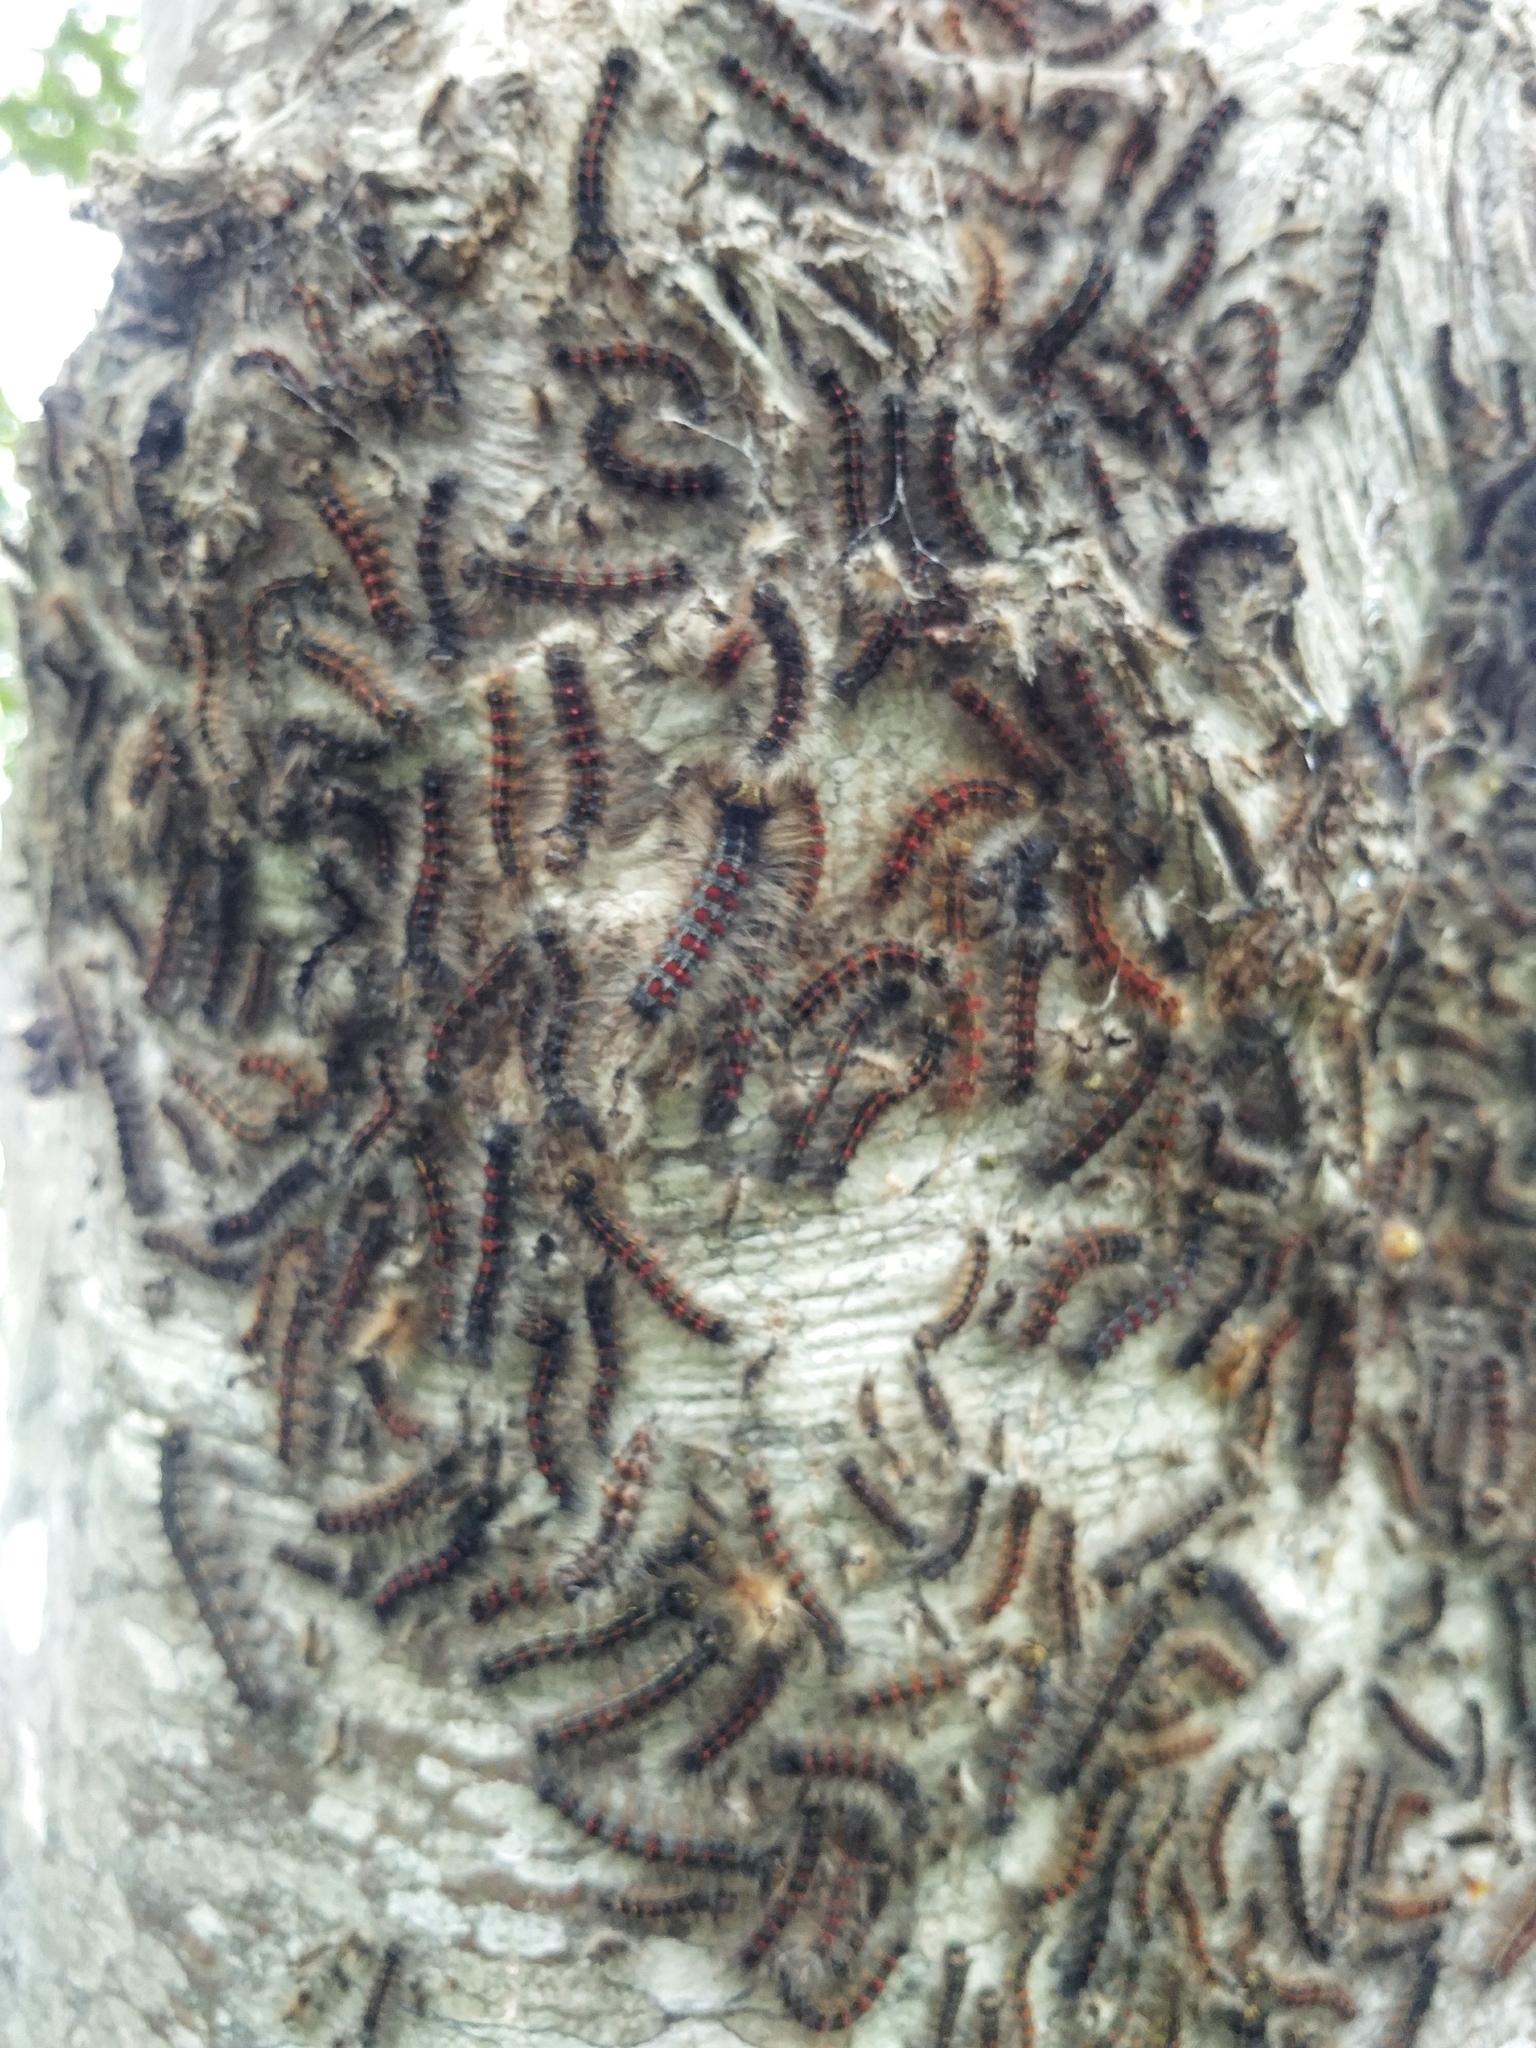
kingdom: Animalia
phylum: Arthropoda
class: Insecta
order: Lepidoptera
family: Erebidae
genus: Lymantria
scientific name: Lymantria dispar
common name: Gypsy moth
